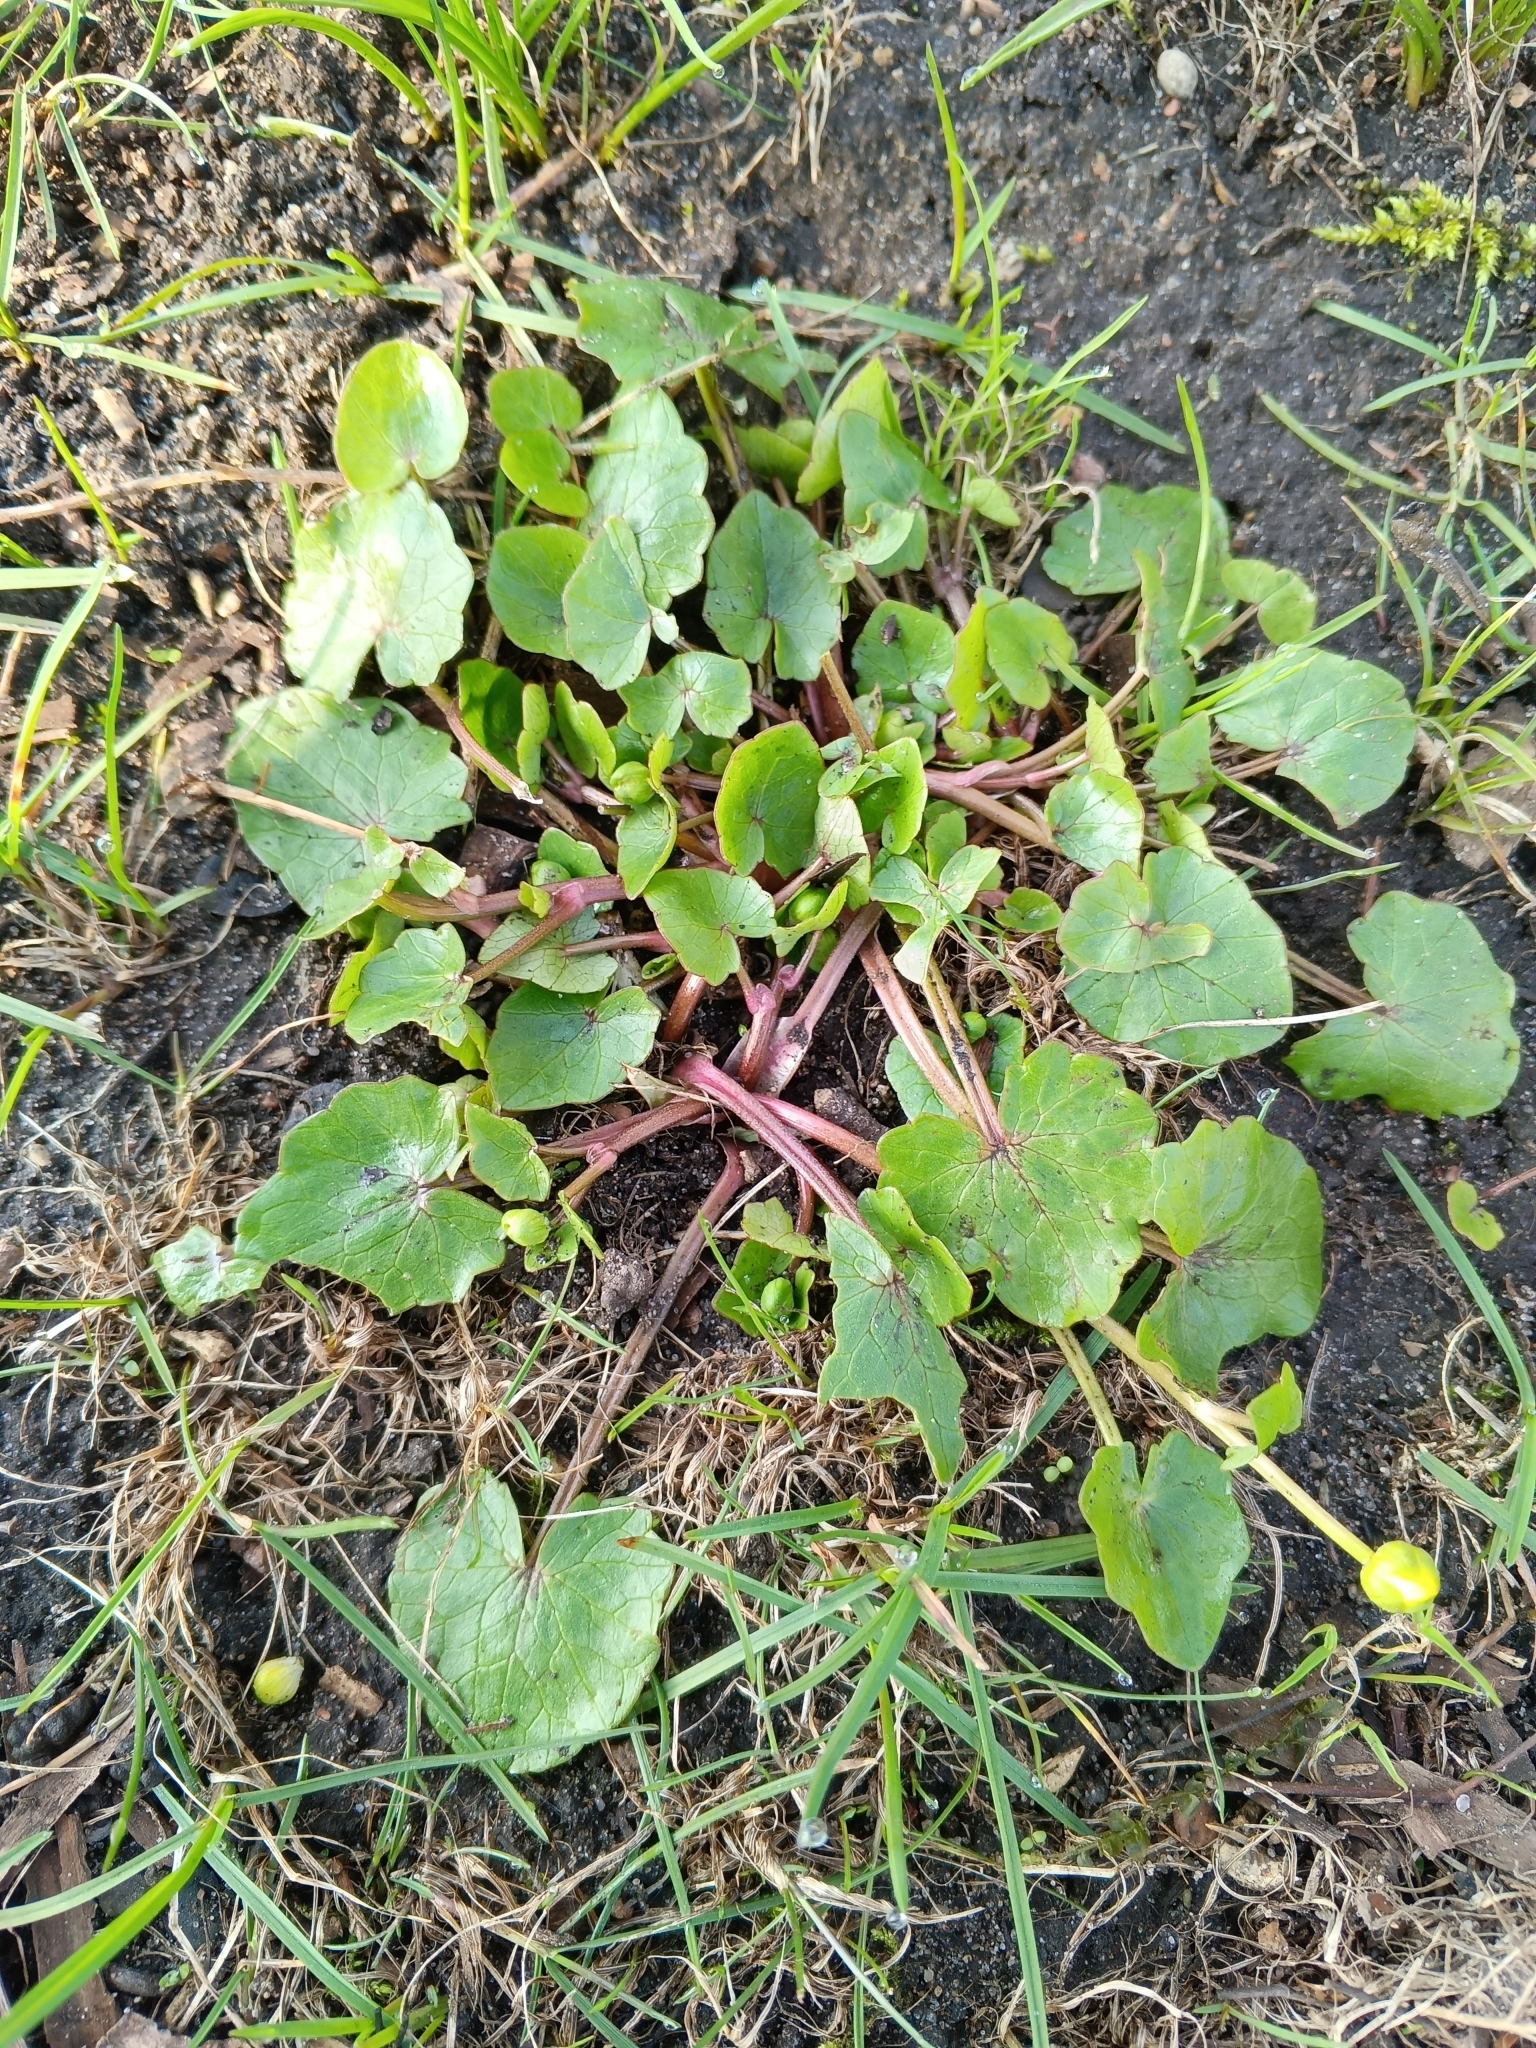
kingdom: Plantae
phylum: Tracheophyta
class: Magnoliopsida
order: Ranunculales
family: Ranunculaceae
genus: Ficaria
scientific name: Ficaria verna
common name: Lesser celandine
